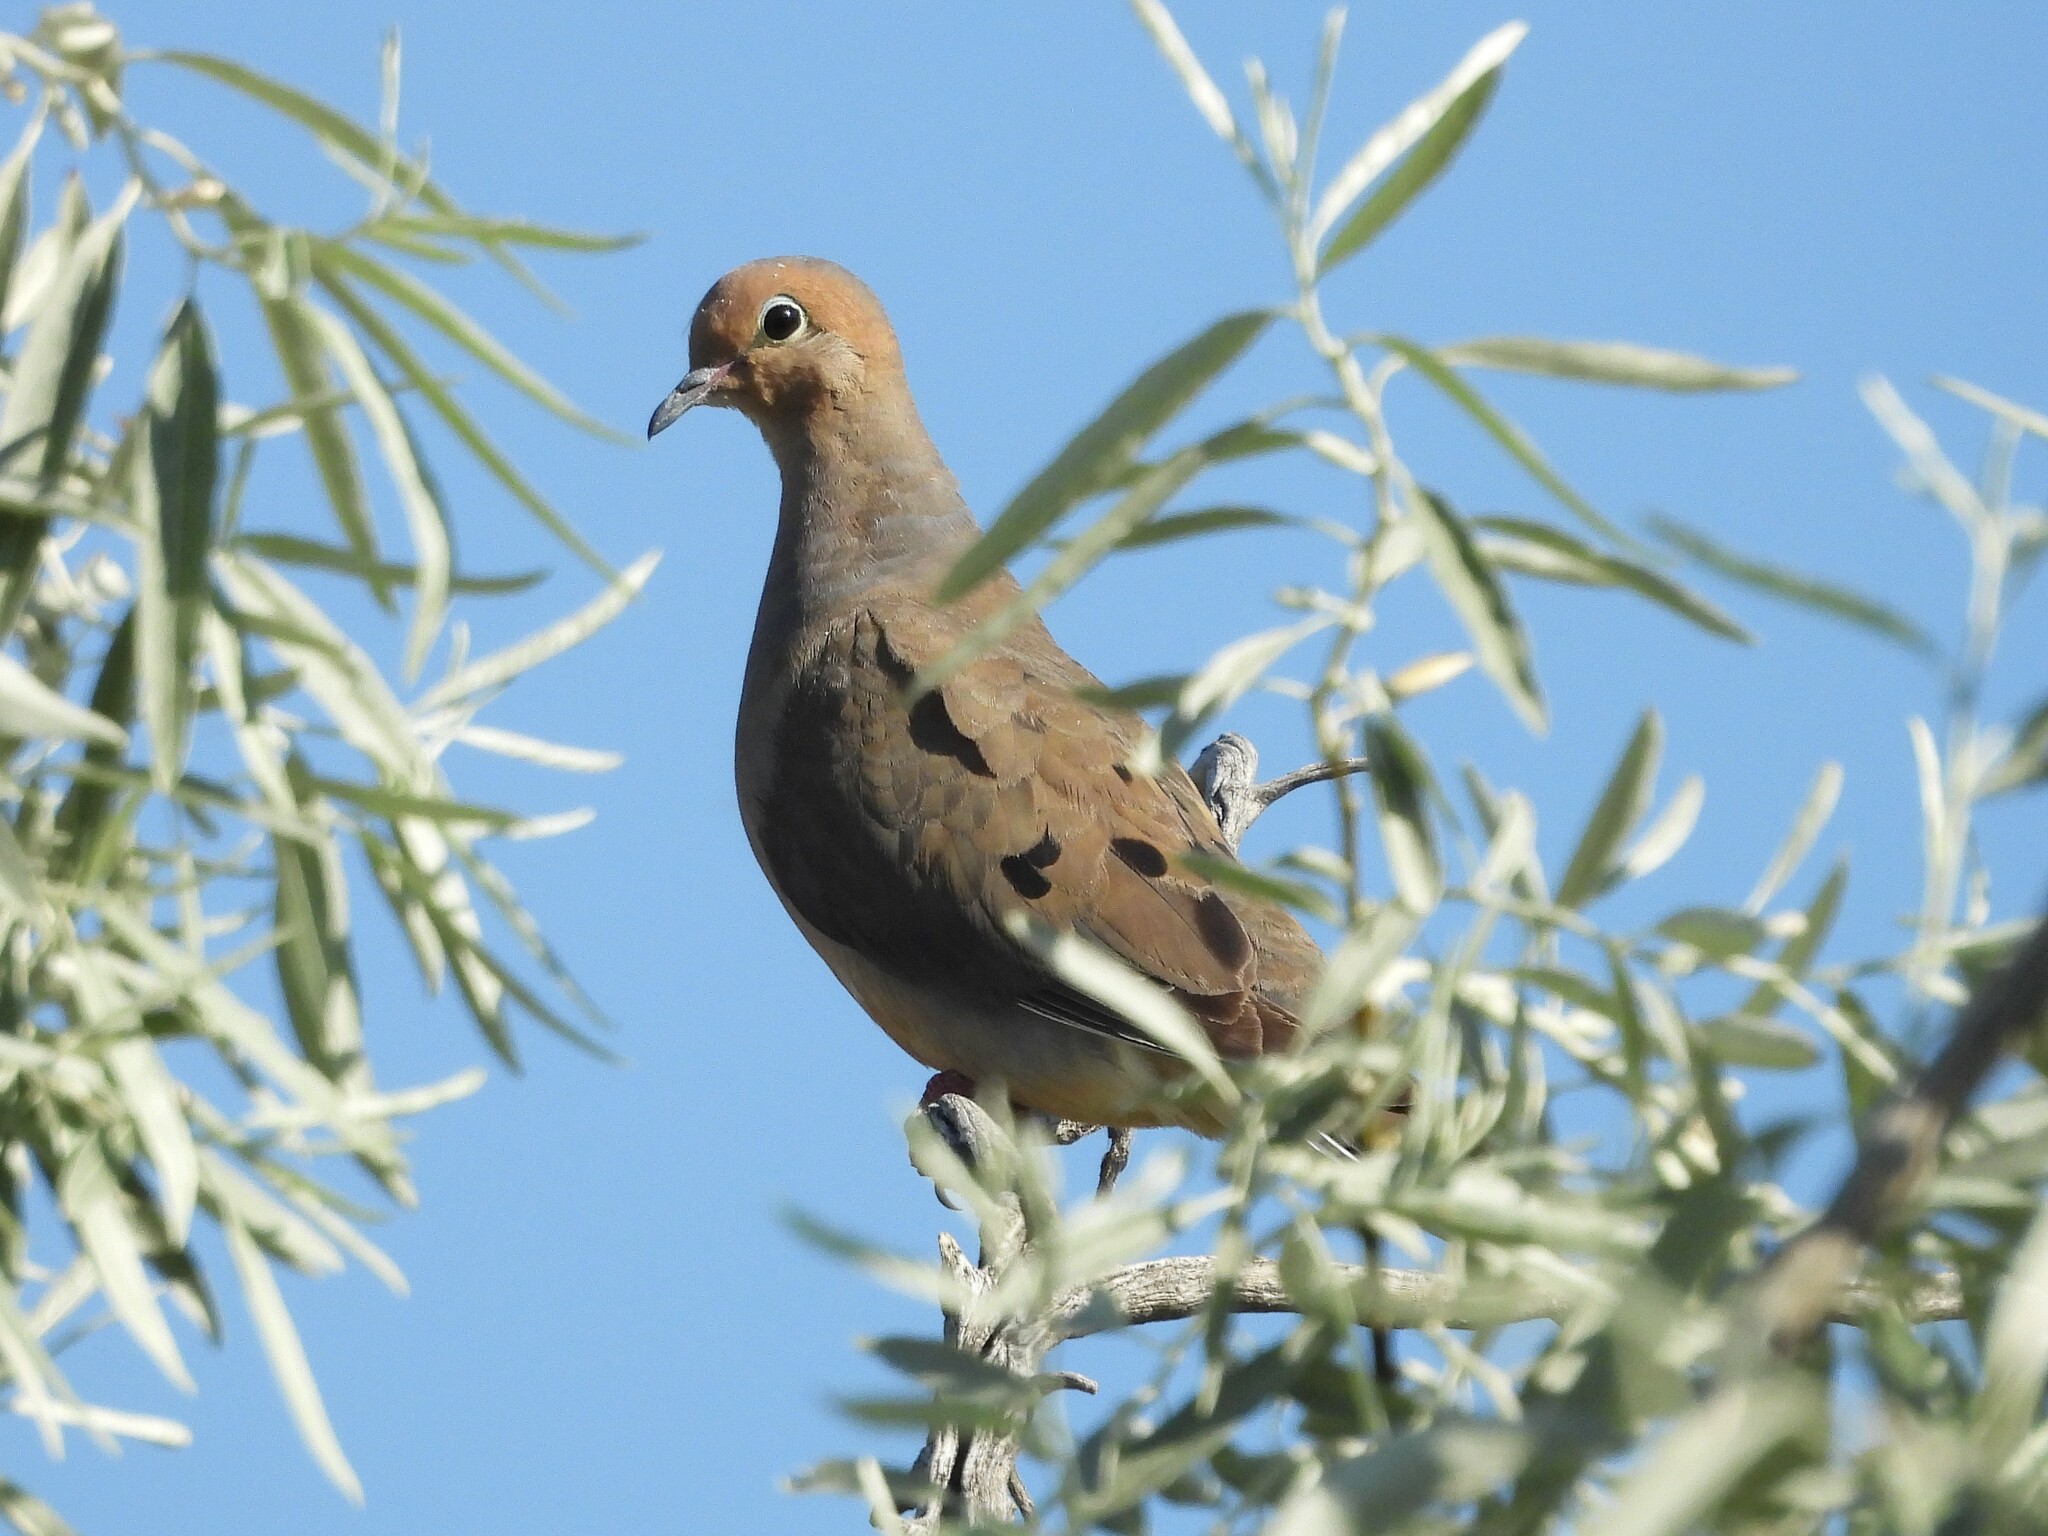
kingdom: Animalia
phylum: Chordata
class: Aves
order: Columbiformes
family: Columbidae
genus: Zenaida
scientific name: Zenaida macroura
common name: Mourning dove
